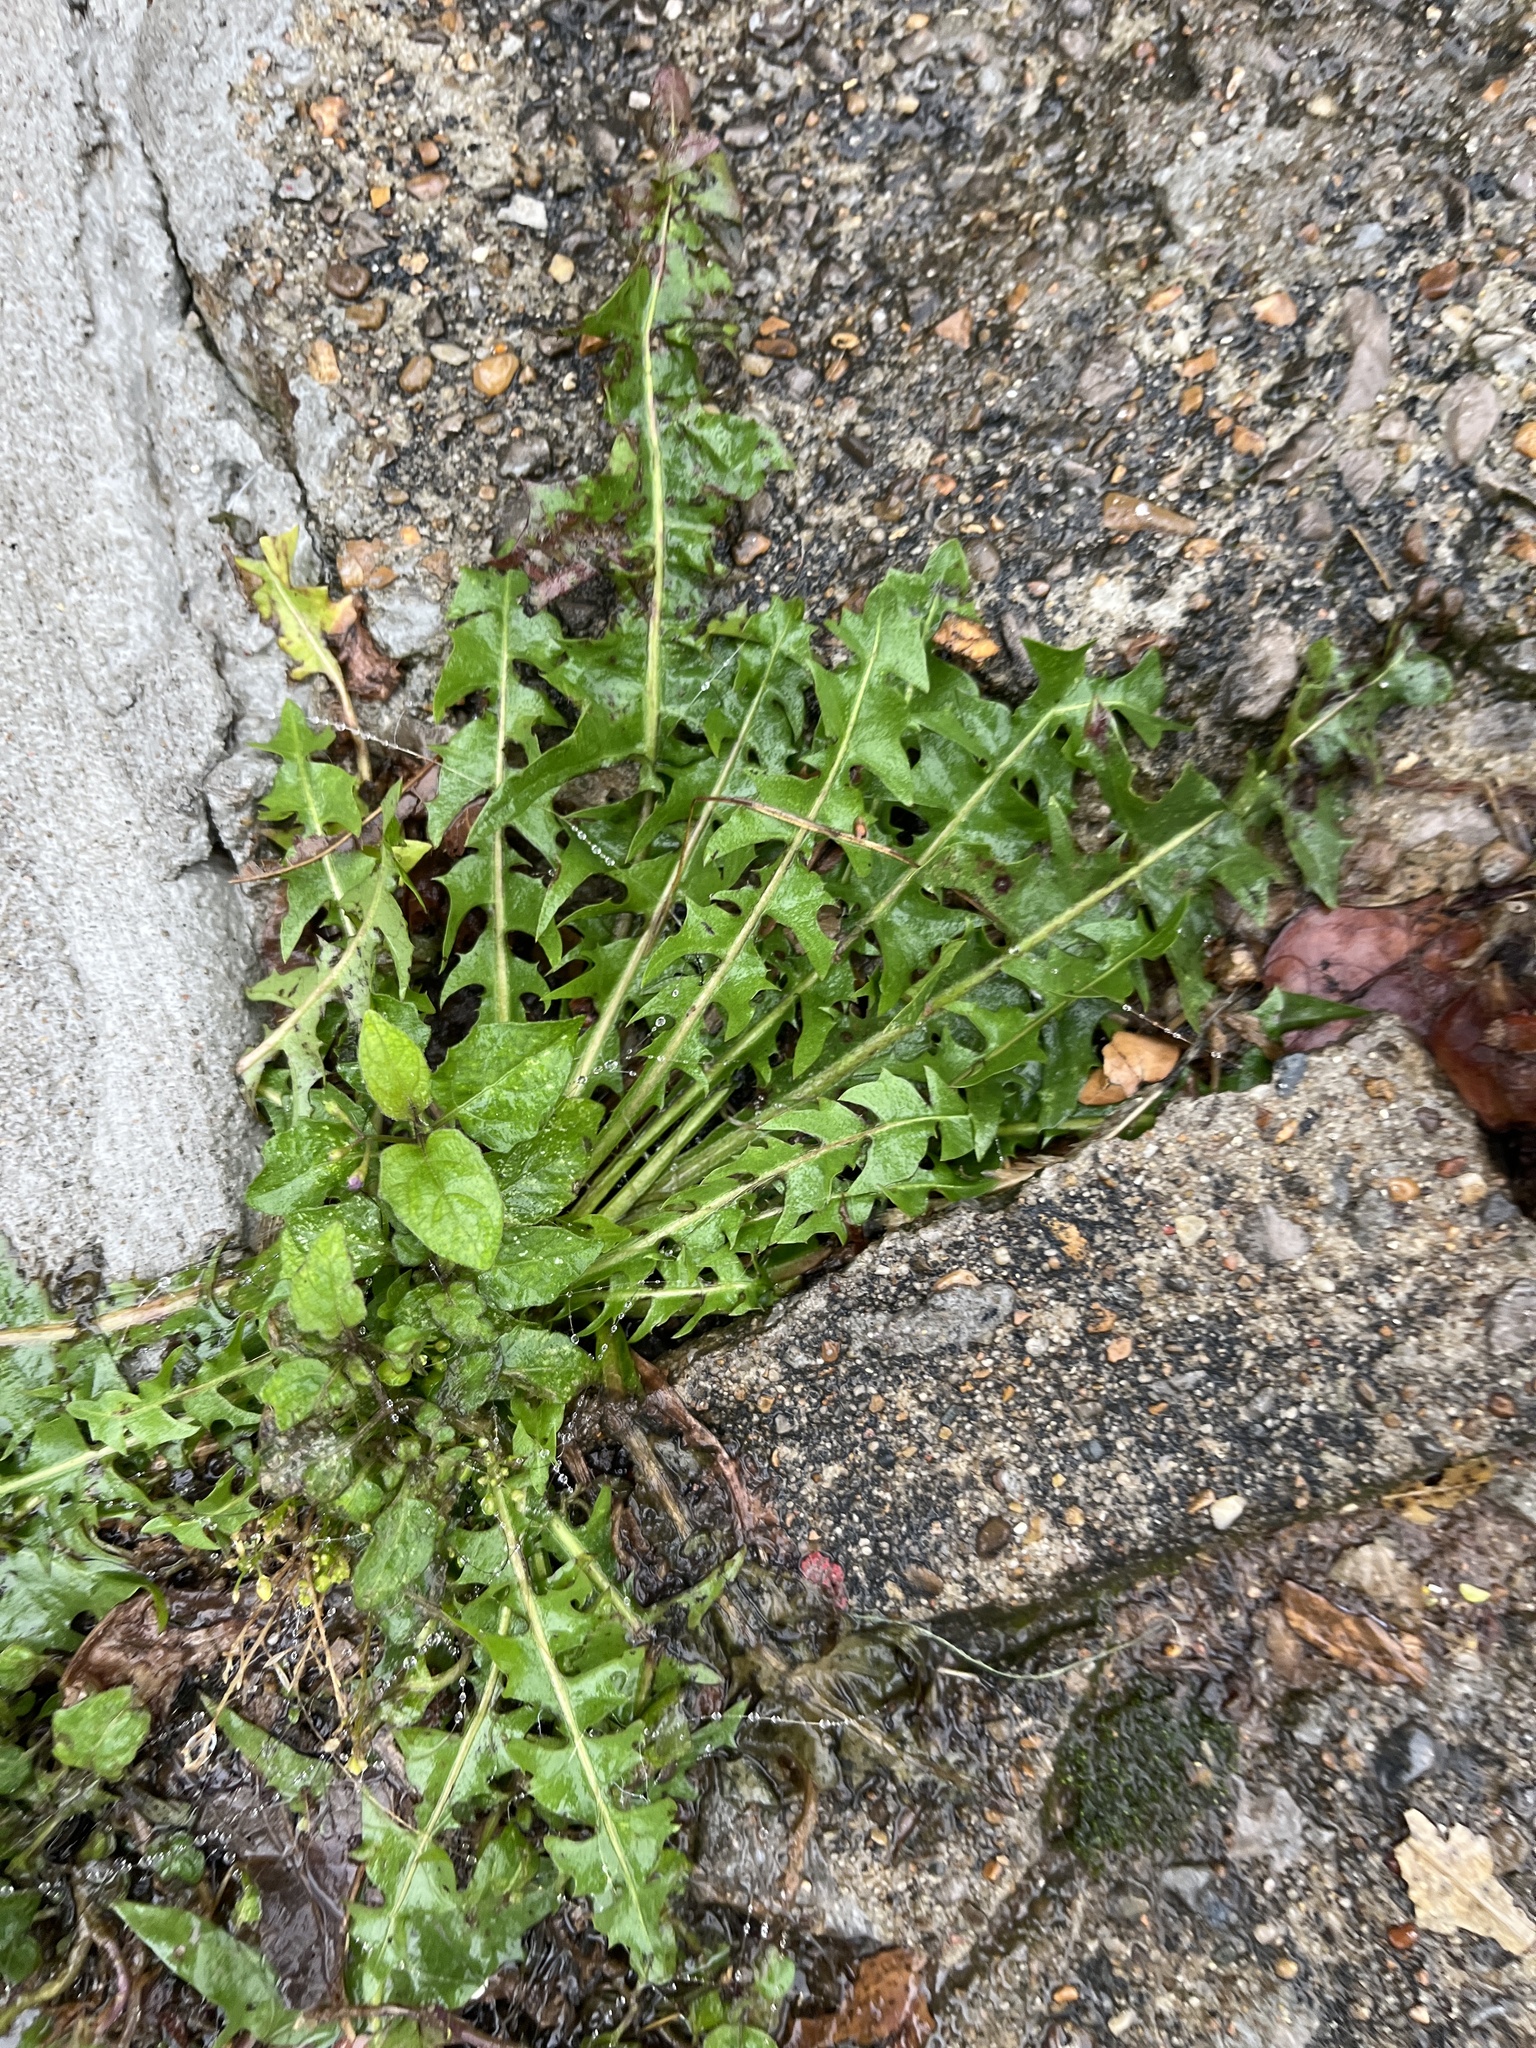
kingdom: Plantae
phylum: Tracheophyta
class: Magnoliopsida
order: Asterales
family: Asteraceae
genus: Taraxacum
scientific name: Taraxacum officinale
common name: Common dandelion
